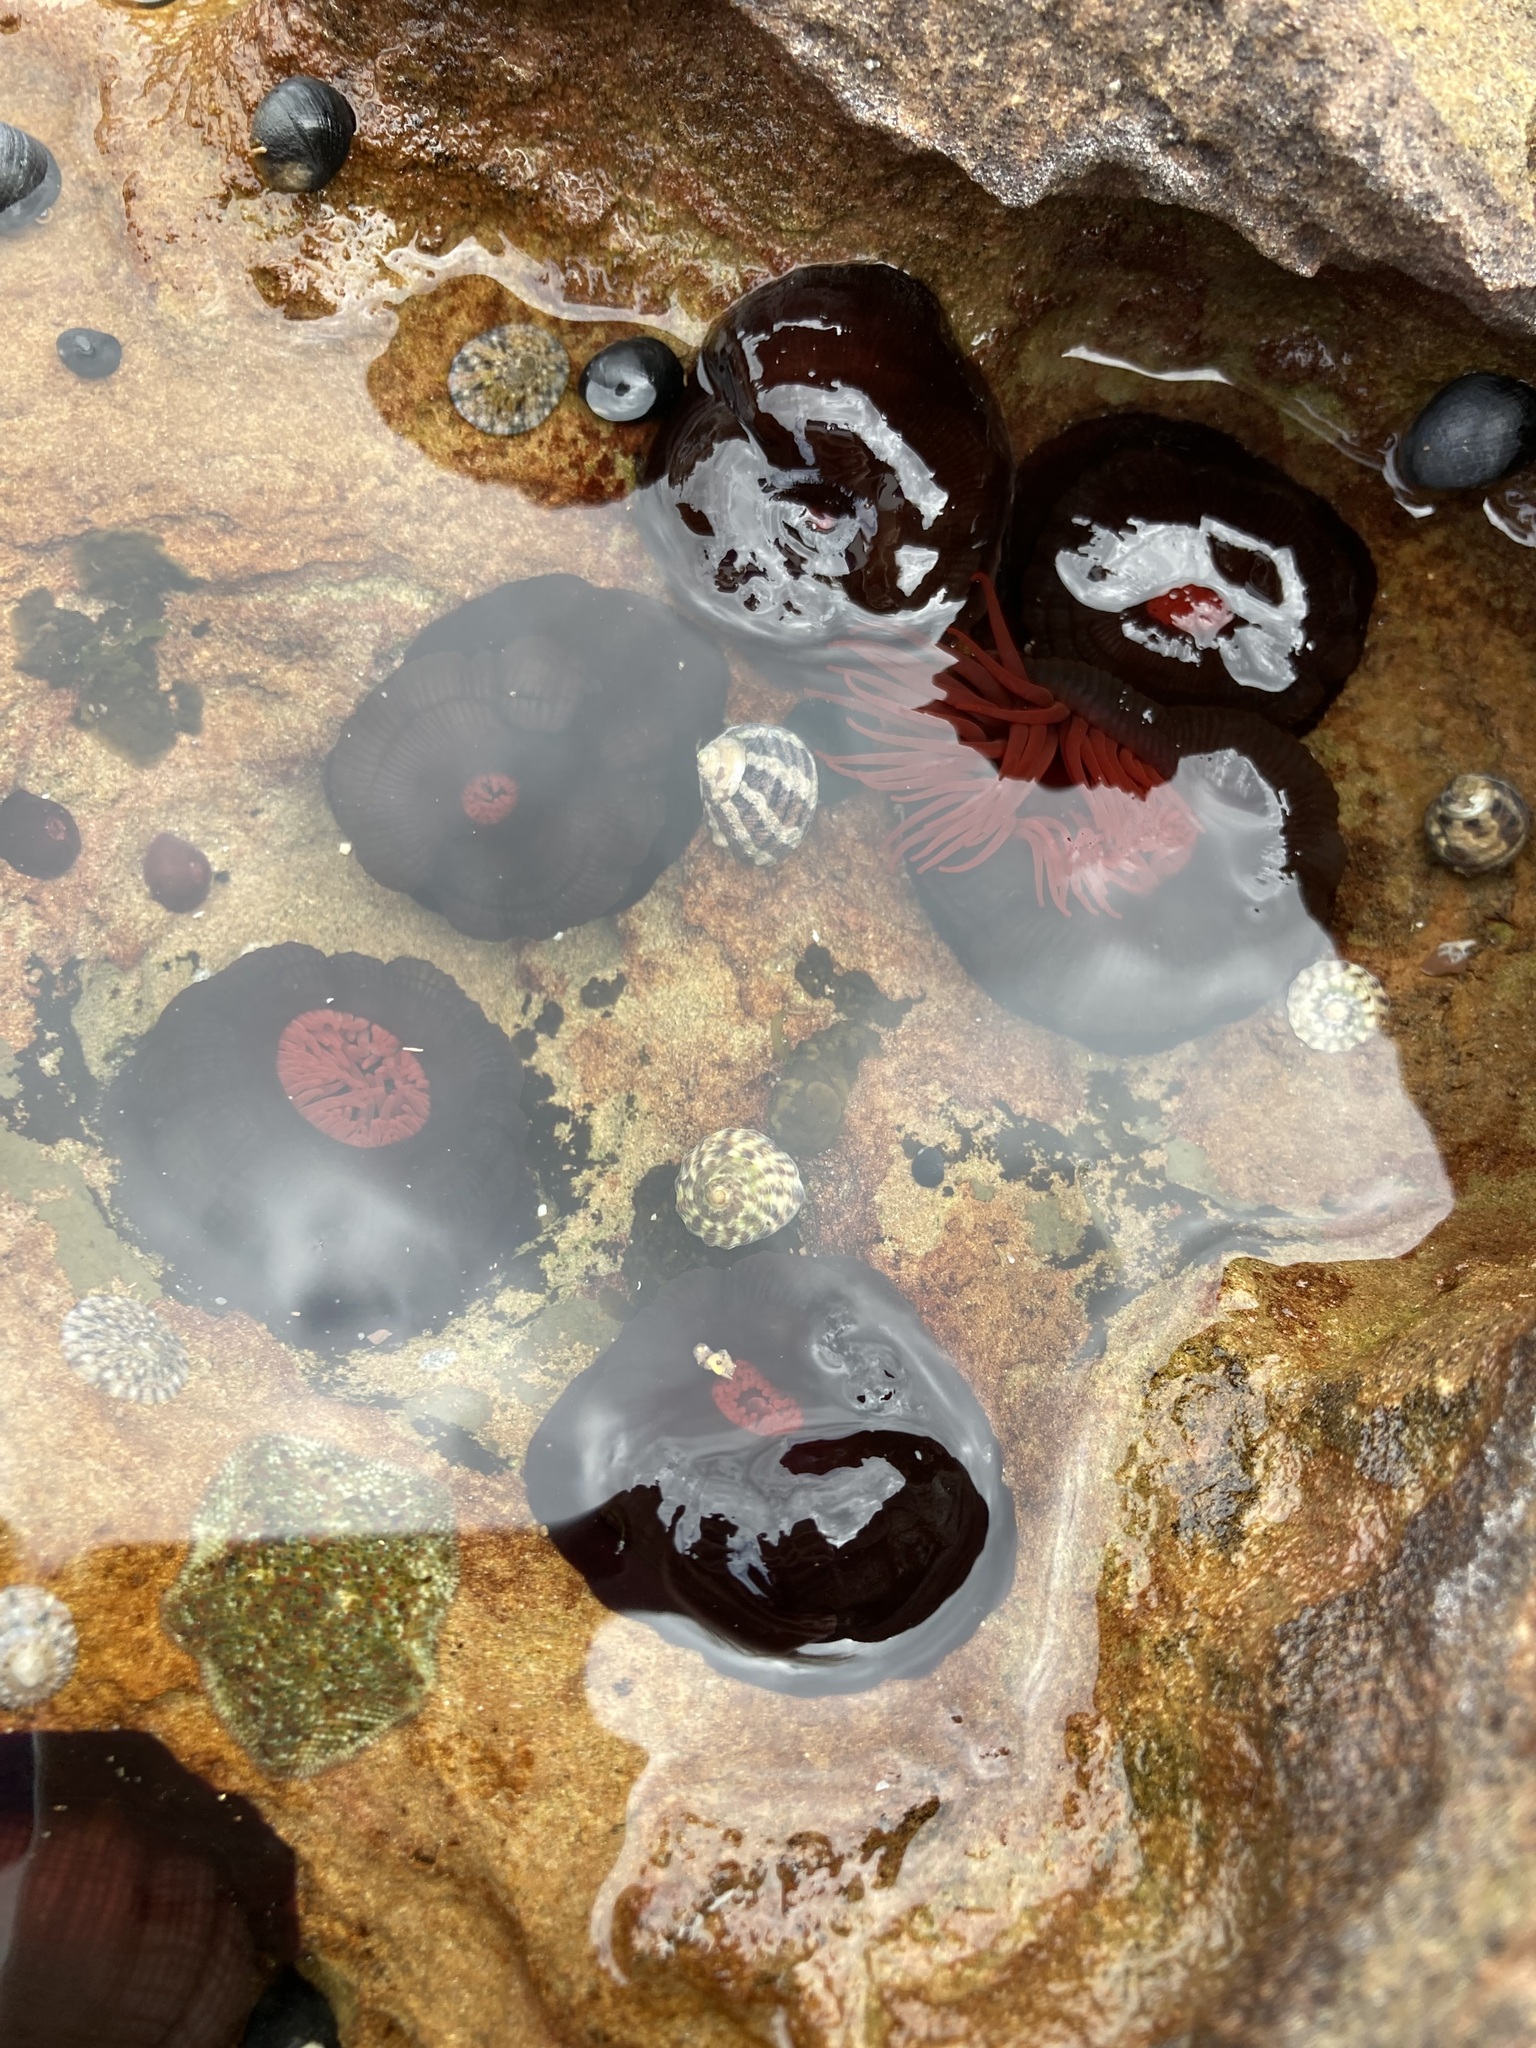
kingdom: Animalia
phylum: Cnidaria
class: Anthozoa
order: Actiniaria
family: Actiniidae
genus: Actinia
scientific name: Actinia tenebrosa
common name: Waratah anemone
